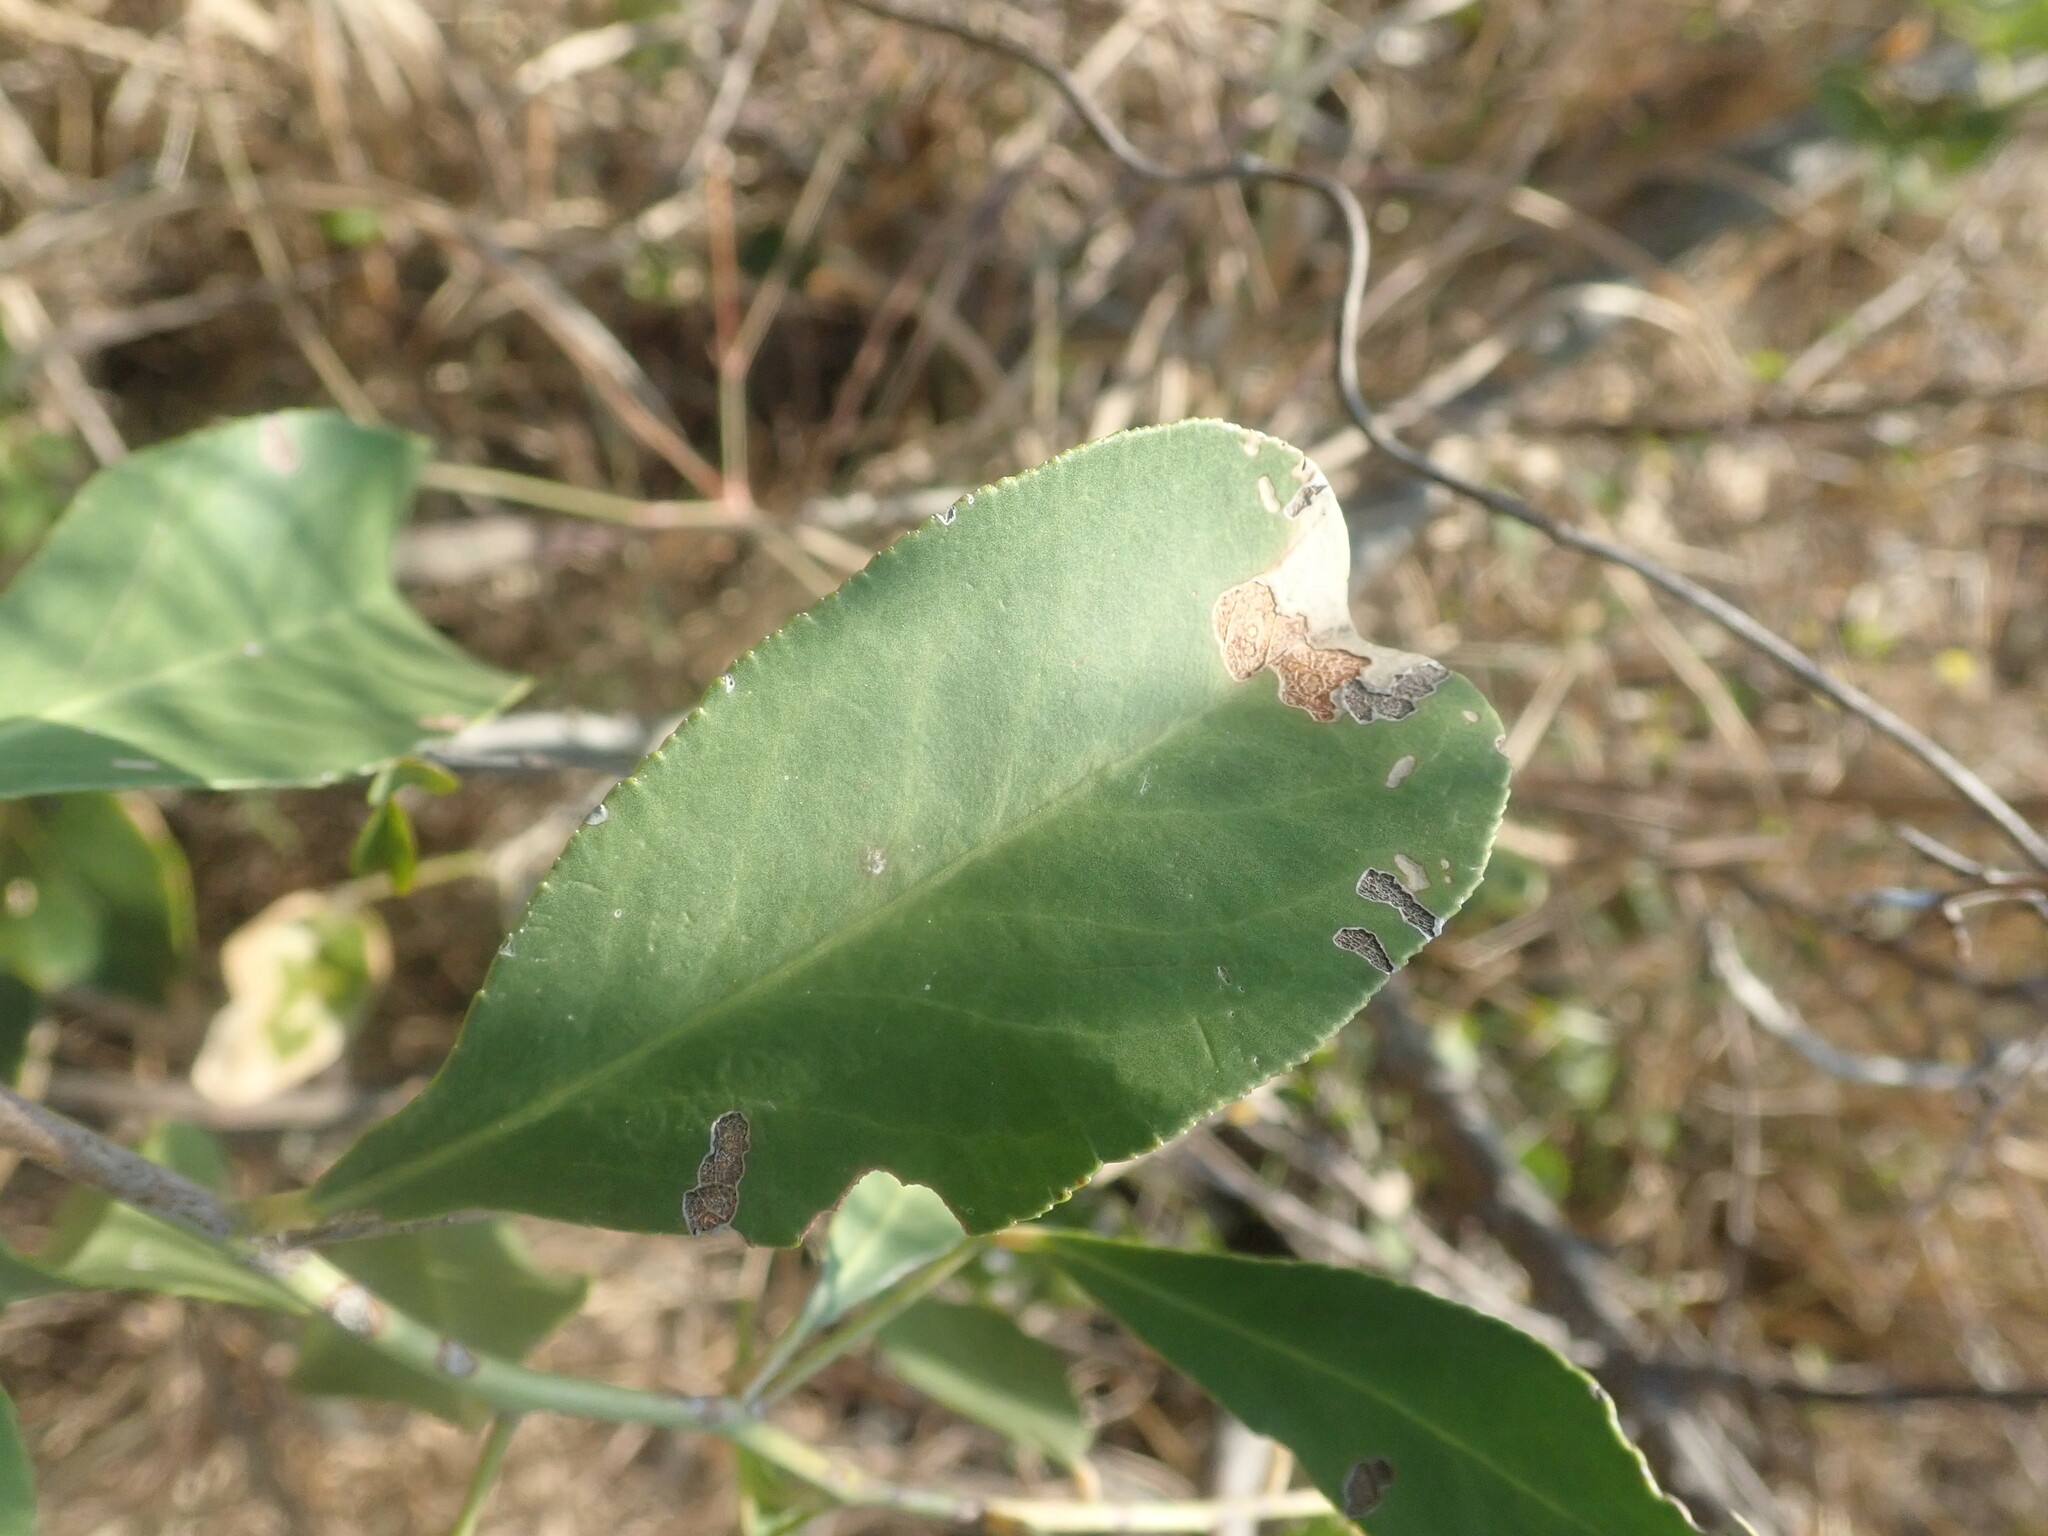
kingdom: Plantae
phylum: Tracheophyta
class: Magnoliopsida
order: Celastrales
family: Celastraceae
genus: Gymnosporia
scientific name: Gymnosporia senegalensis
